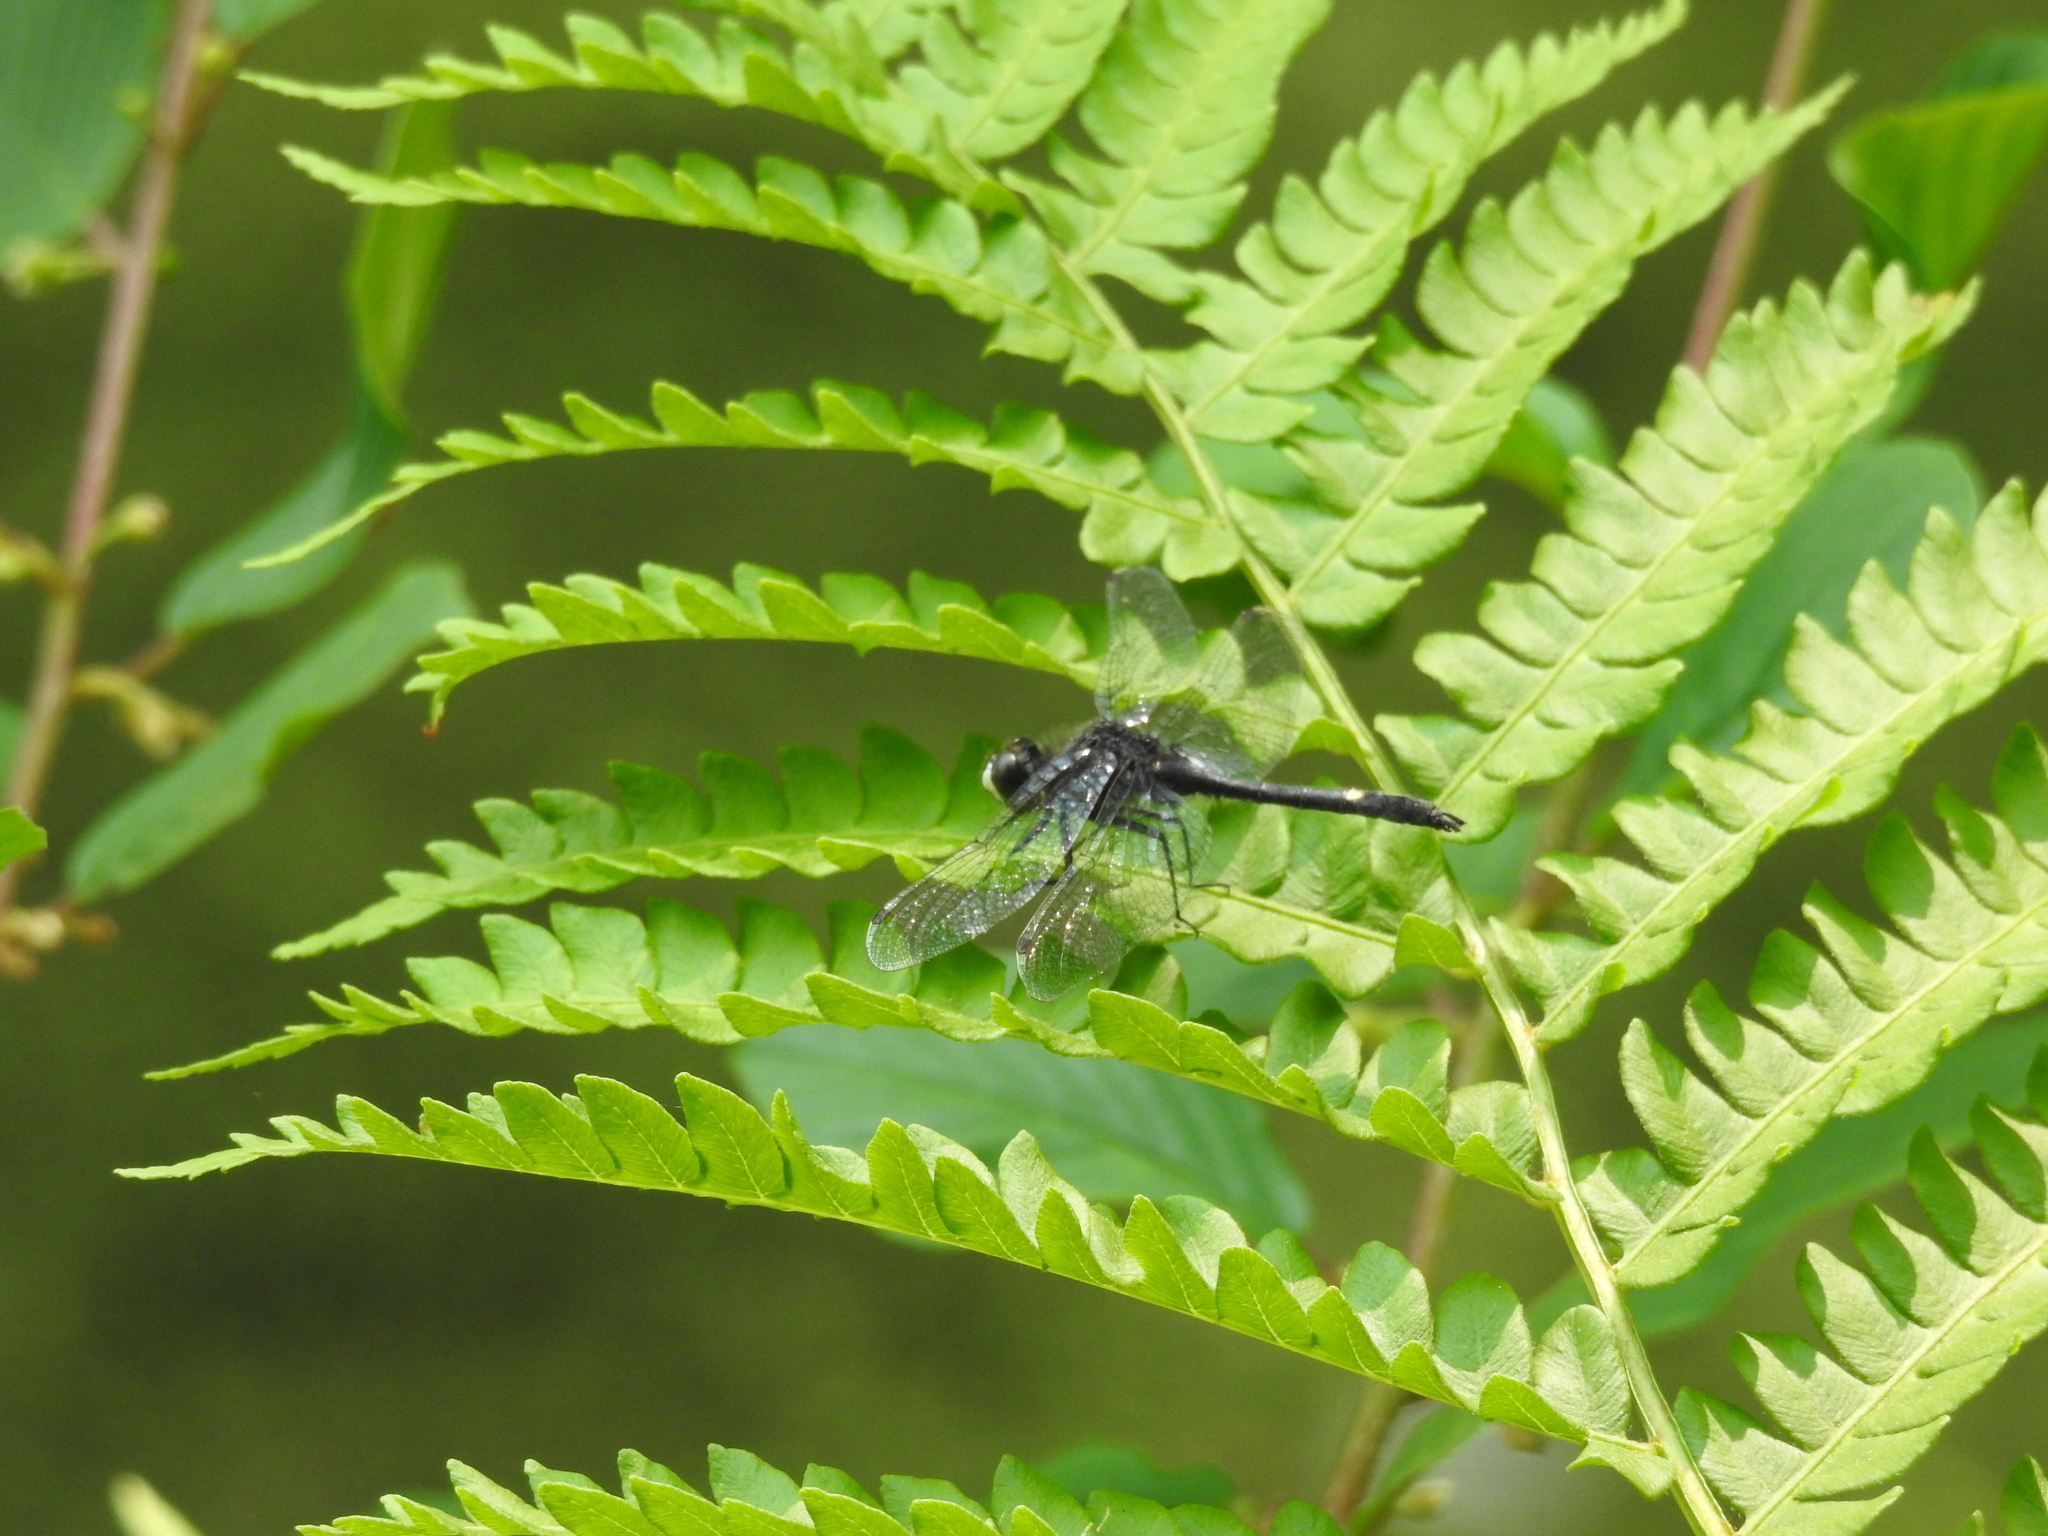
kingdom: Animalia
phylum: Arthropoda
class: Insecta
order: Odonata
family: Libellulidae
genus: Leucorrhinia
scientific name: Leucorrhinia intacta
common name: Dot-tailed whiteface
